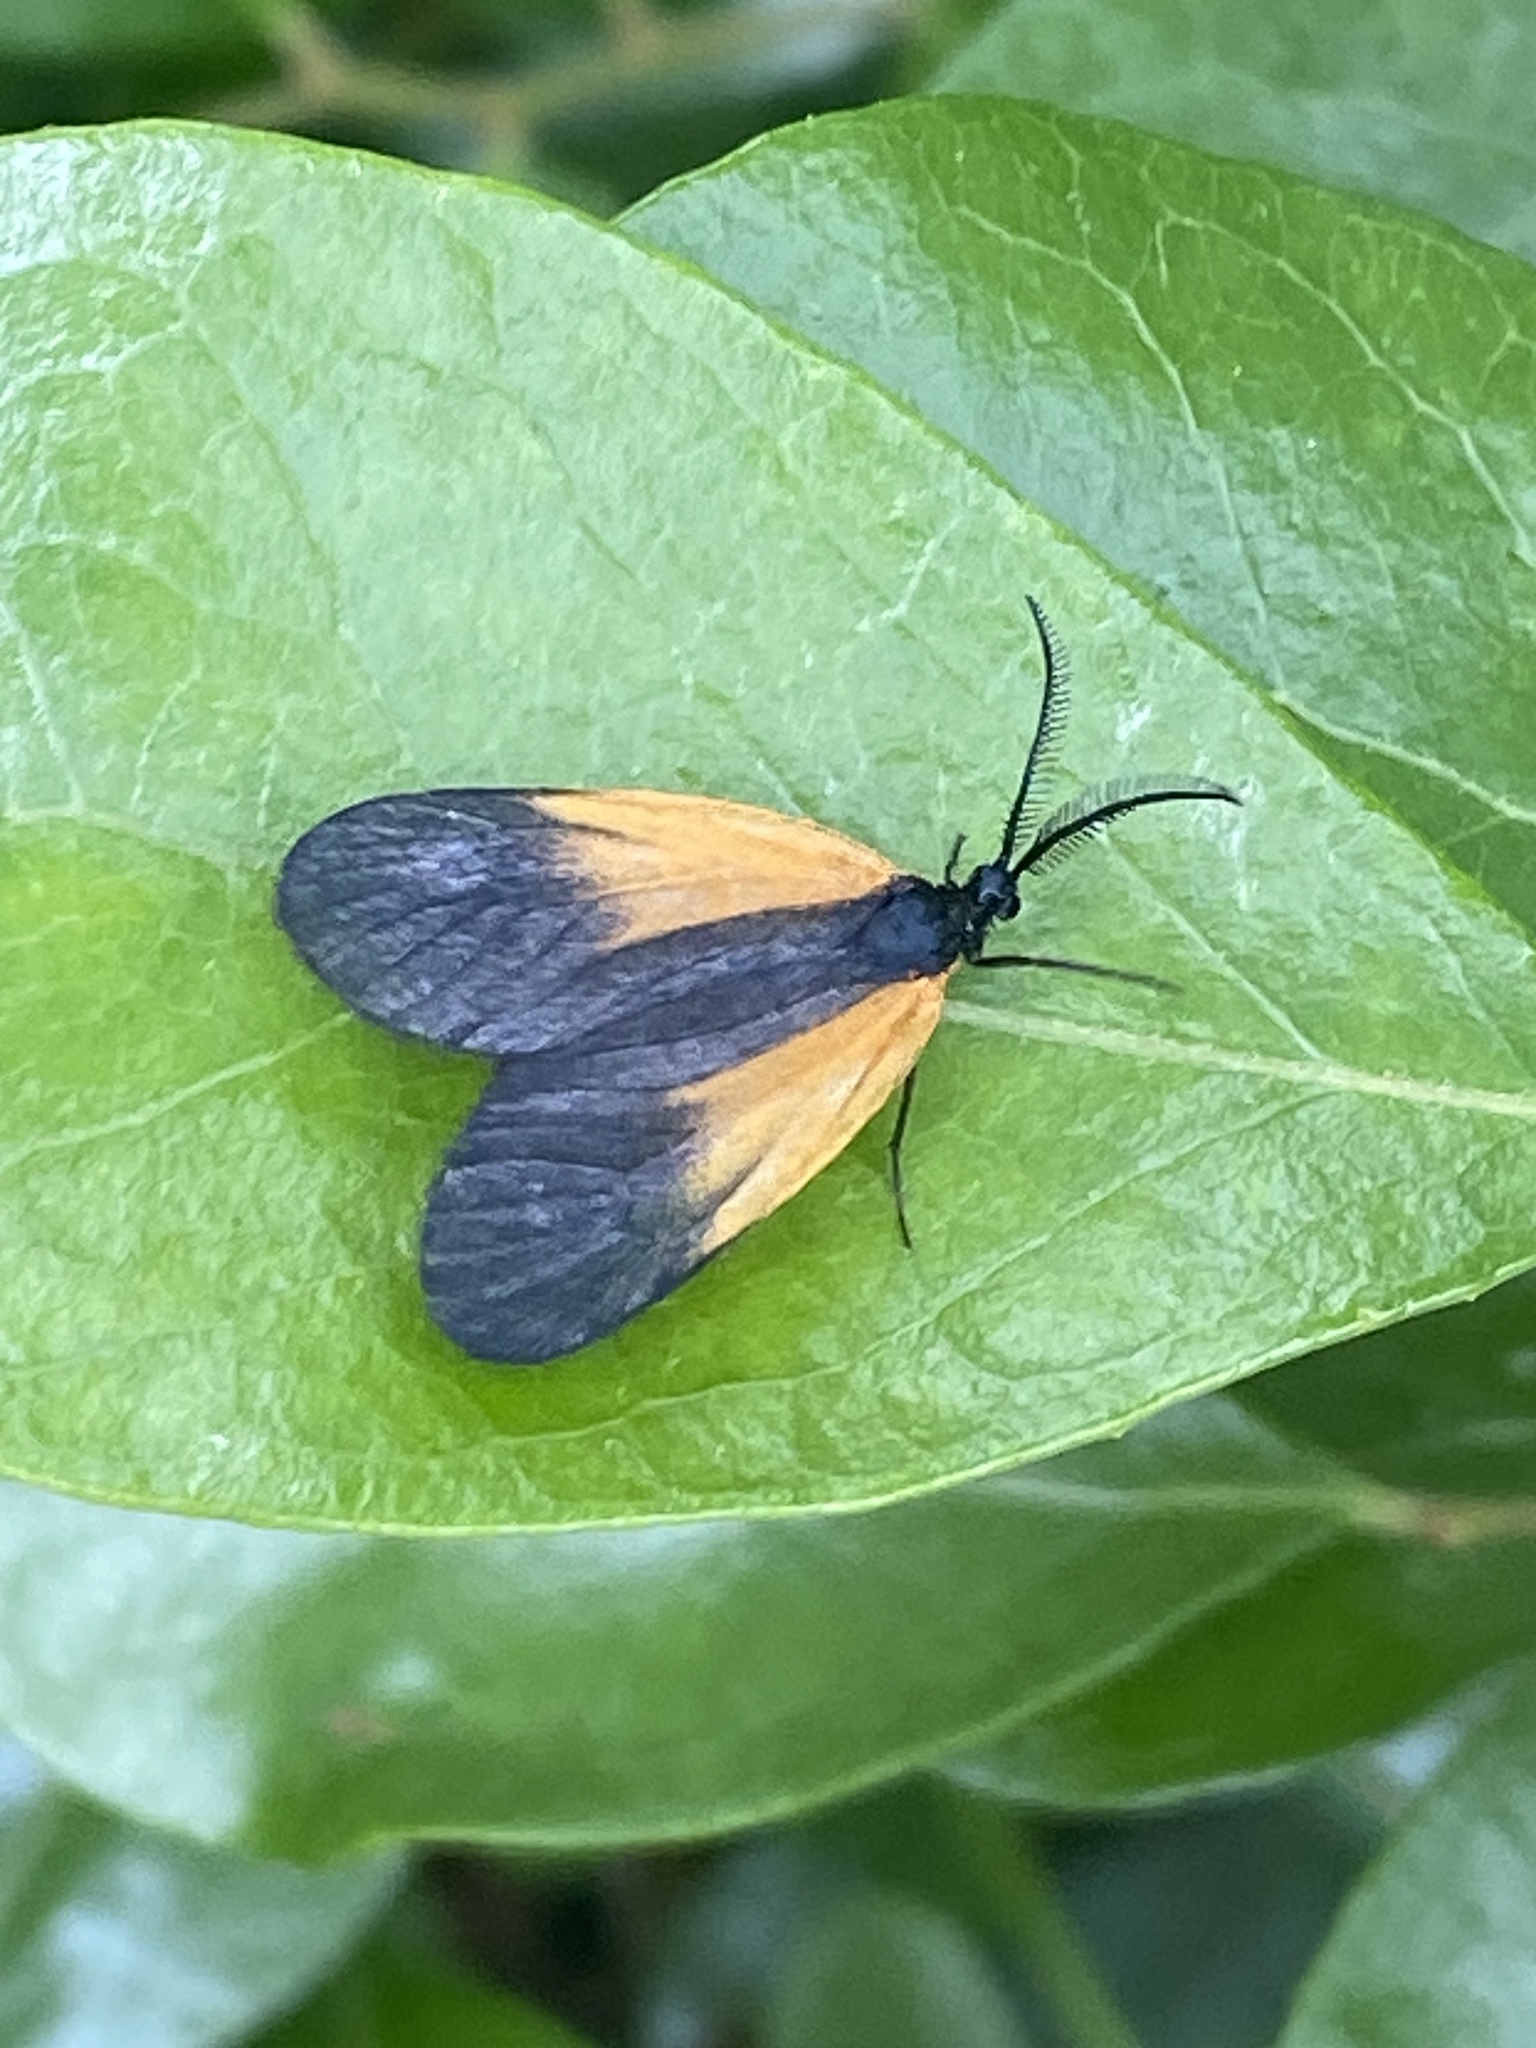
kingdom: Animalia
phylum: Arthropoda
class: Insecta
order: Lepidoptera
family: Zygaenidae
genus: Malthaca
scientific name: Malthaca dimidiata
